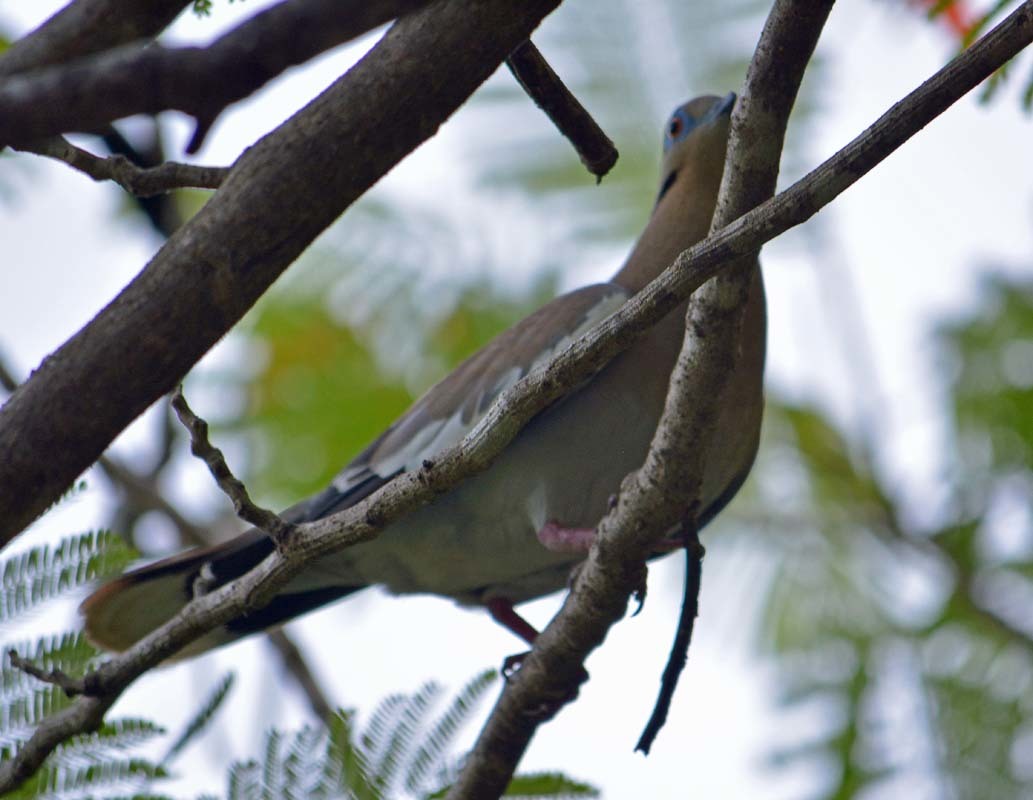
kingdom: Animalia
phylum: Chordata
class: Aves
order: Columbiformes
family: Columbidae
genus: Zenaida
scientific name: Zenaida asiatica
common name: White-winged dove
